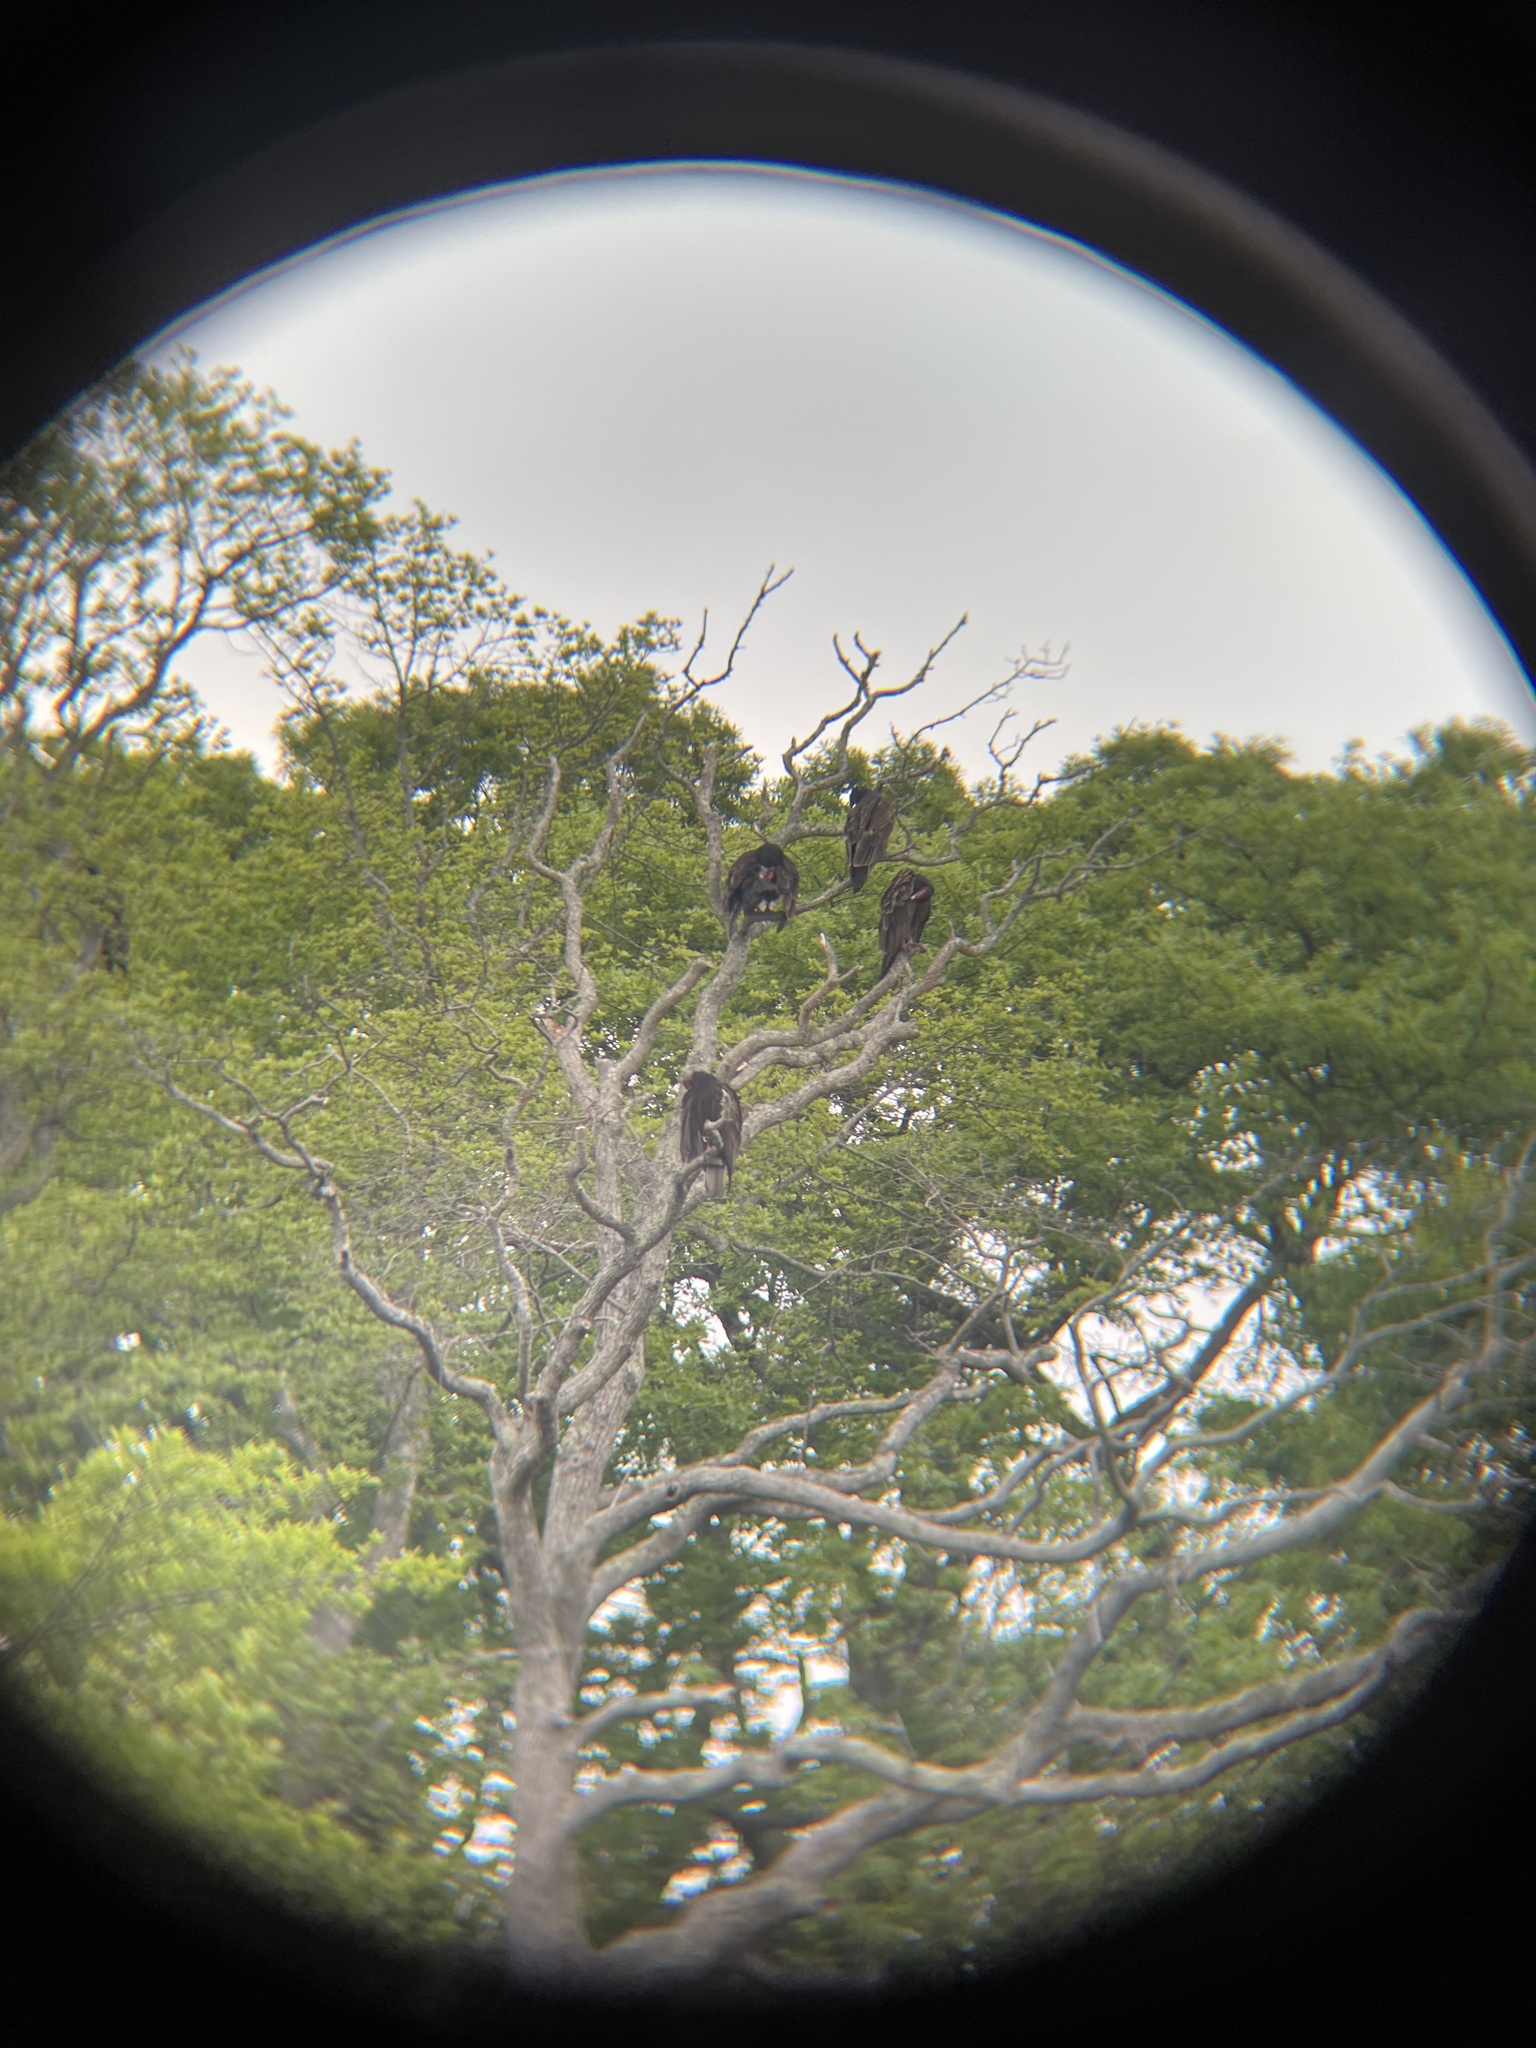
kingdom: Animalia
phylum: Chordata
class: Aves
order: Accipitriformes
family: Cathartidae
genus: Cathartes
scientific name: Cathartes aura
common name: Turkey vulture
